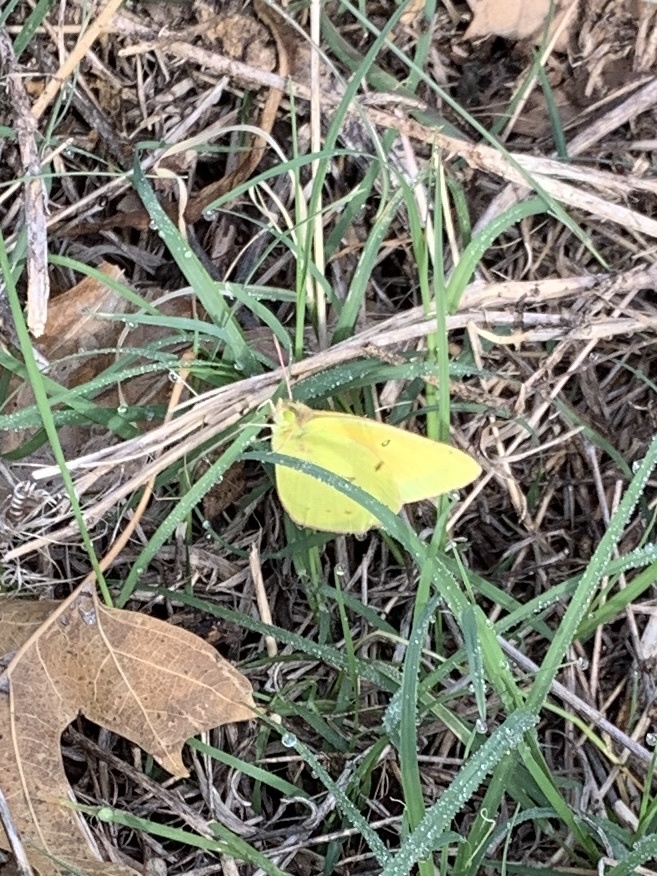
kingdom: Animalia
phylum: Arthropoda
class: Insecta
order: Lepidoptera
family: Pieridae
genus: Colias
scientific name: Colias eurytheme
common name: Alfalfa butterfly
